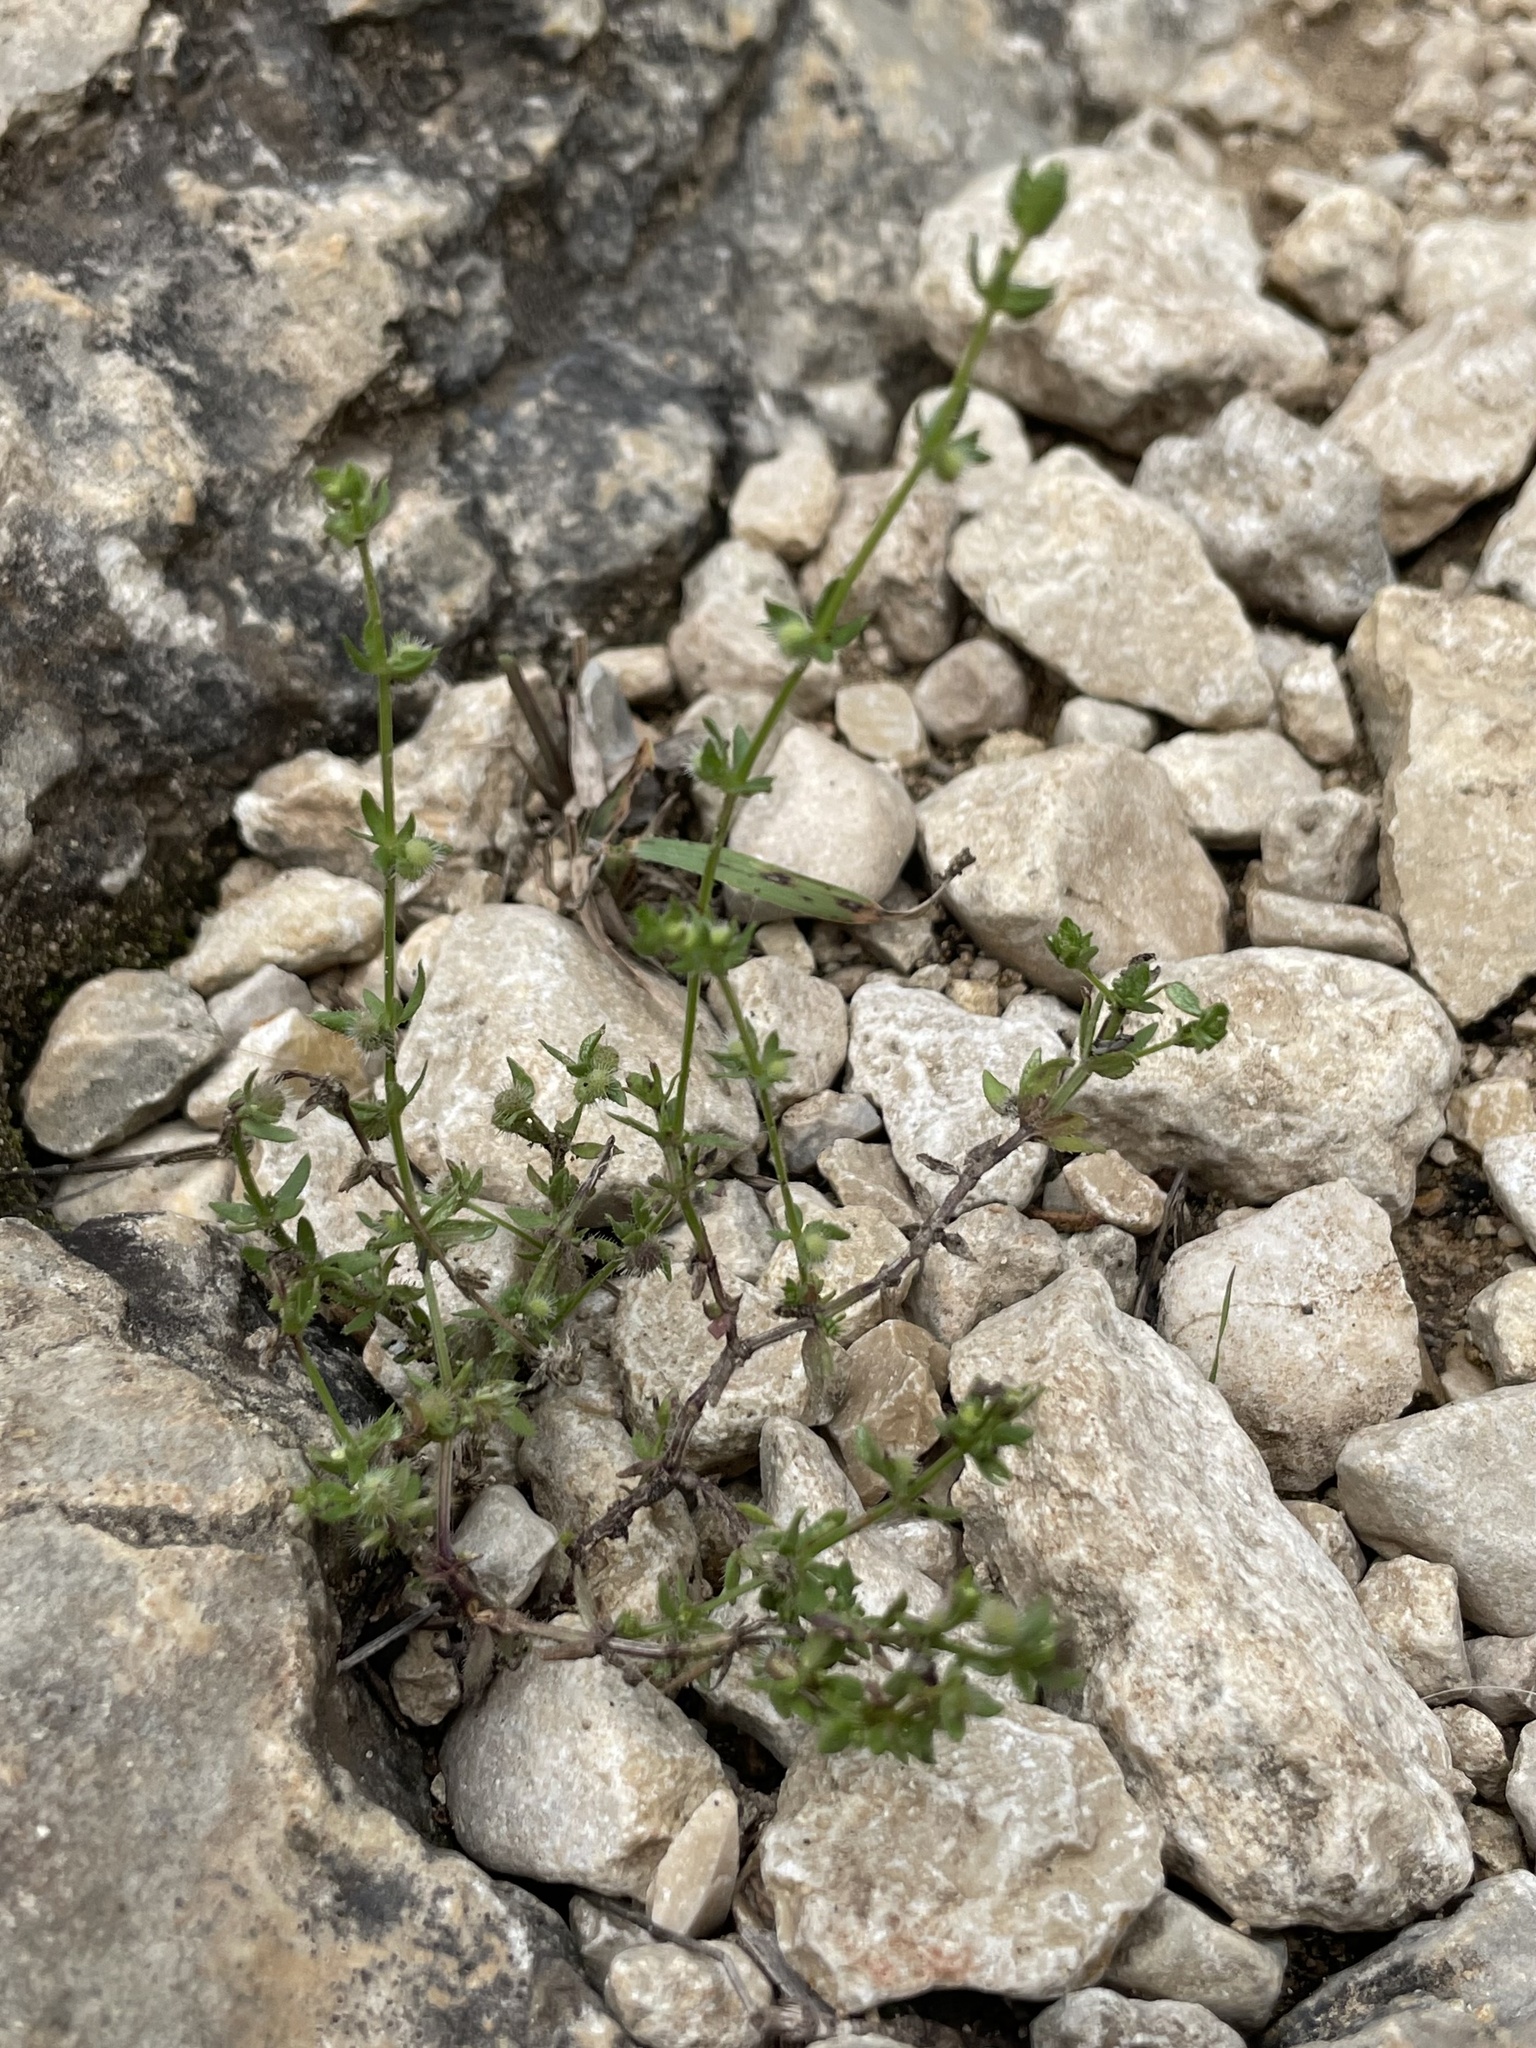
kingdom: Plantae
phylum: Tracheophyta
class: Magnoliopsida
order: Gentianales
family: Rubiaceae
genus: Galium
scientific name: Galium virgatum
